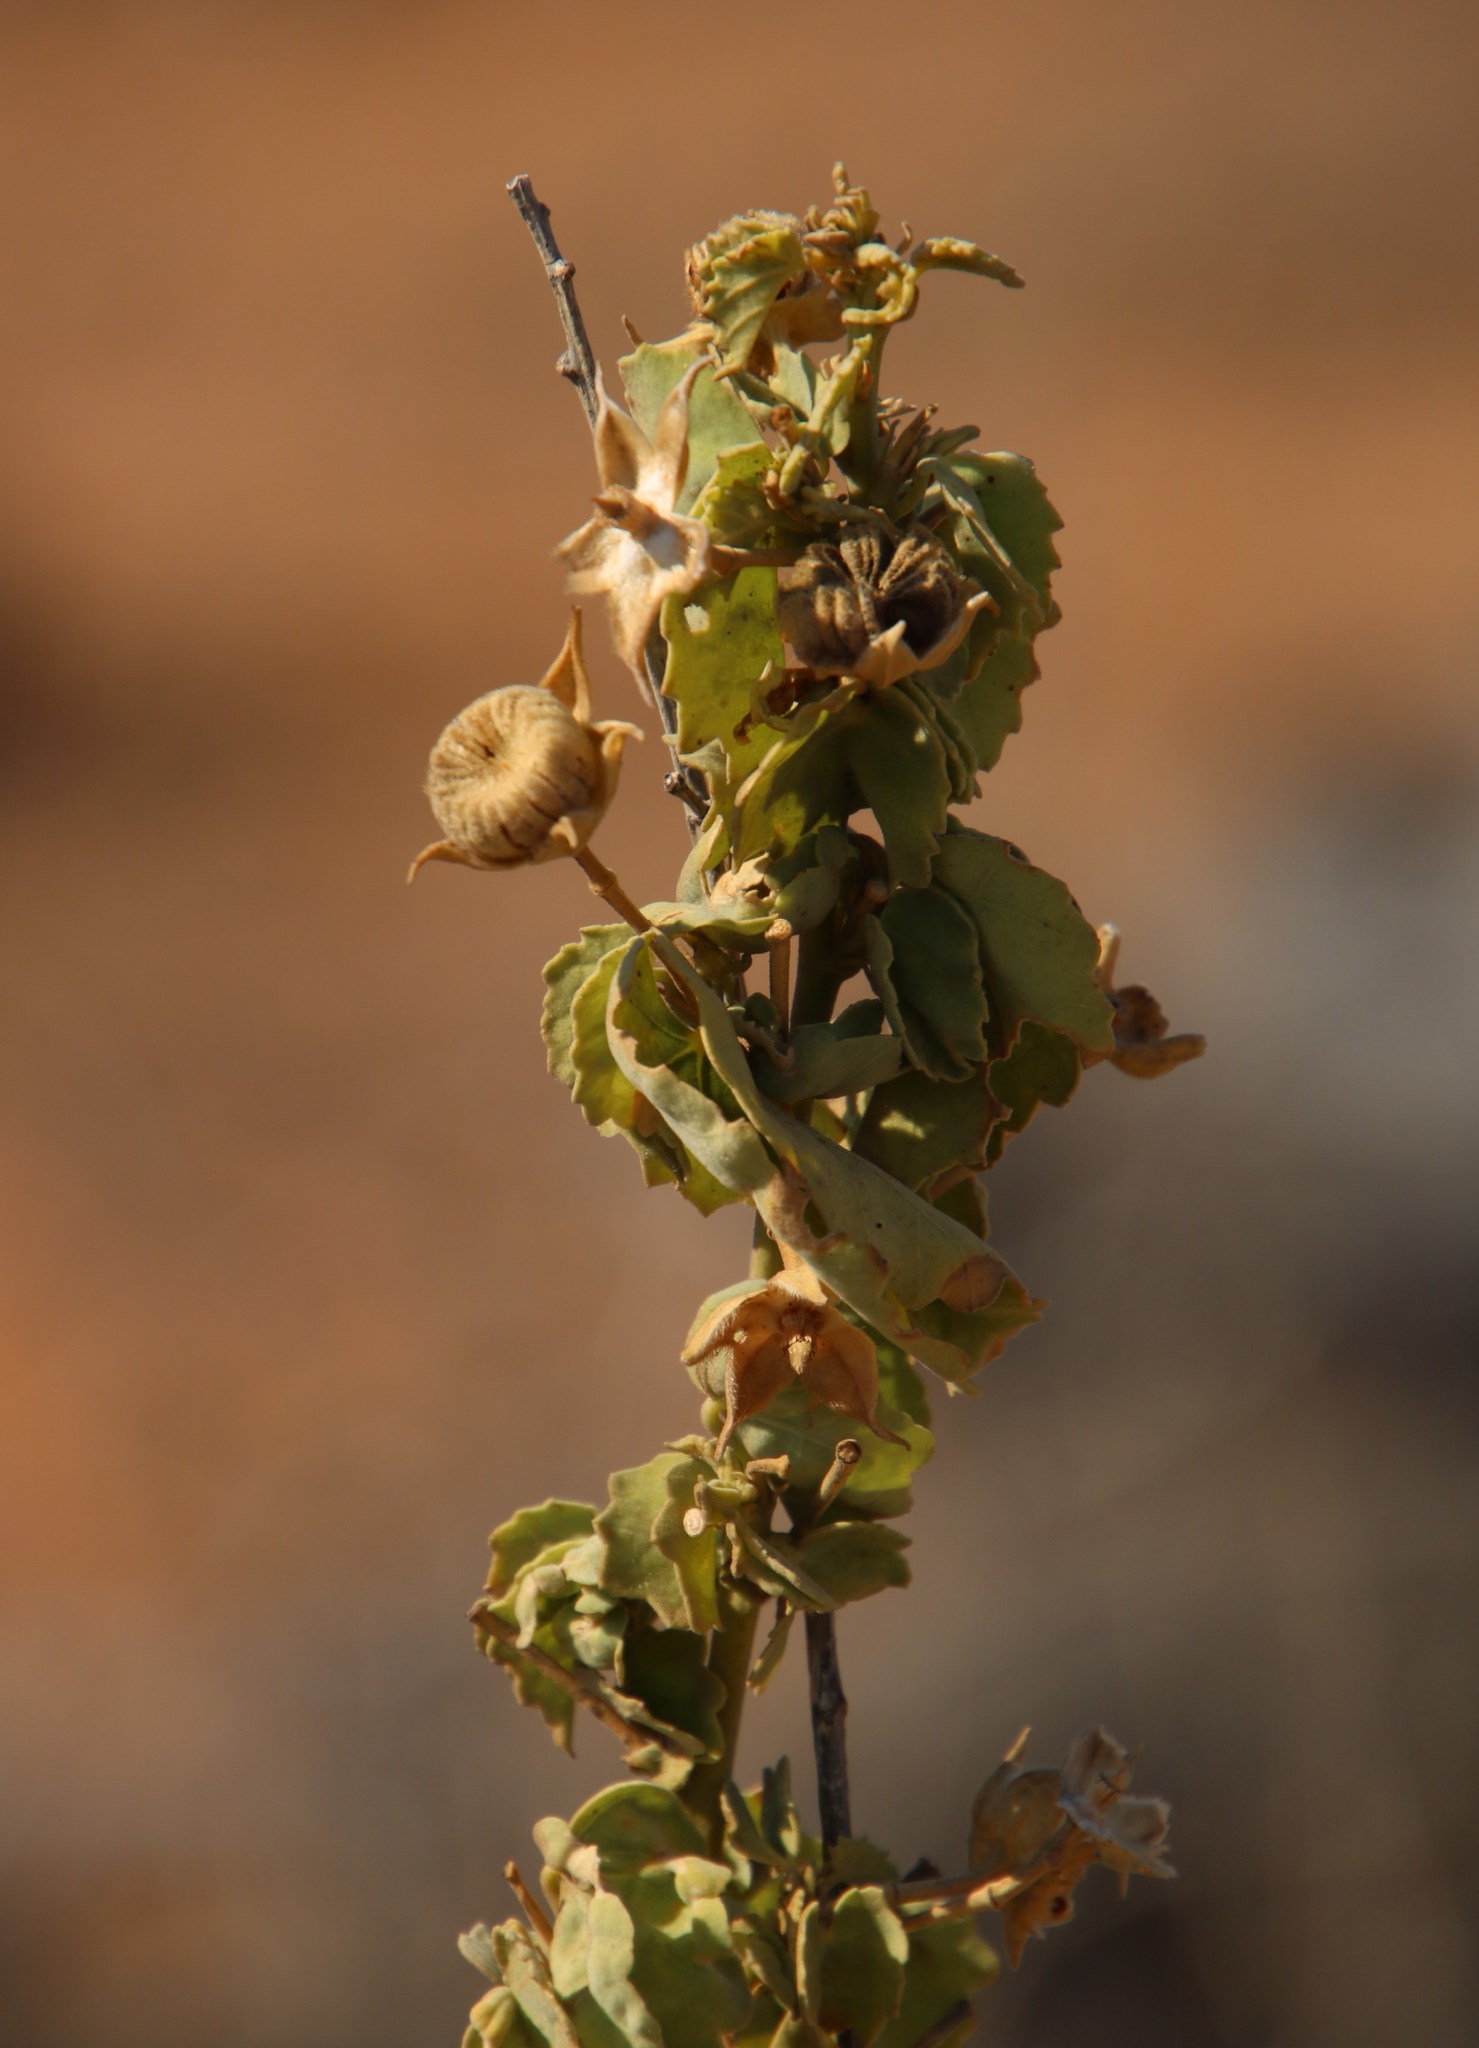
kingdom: Plantae
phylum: Tracheophyta
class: Magnoliopsida
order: Malvales
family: Malvaceae
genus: Abutilon
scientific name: Abutilon pycnodon
